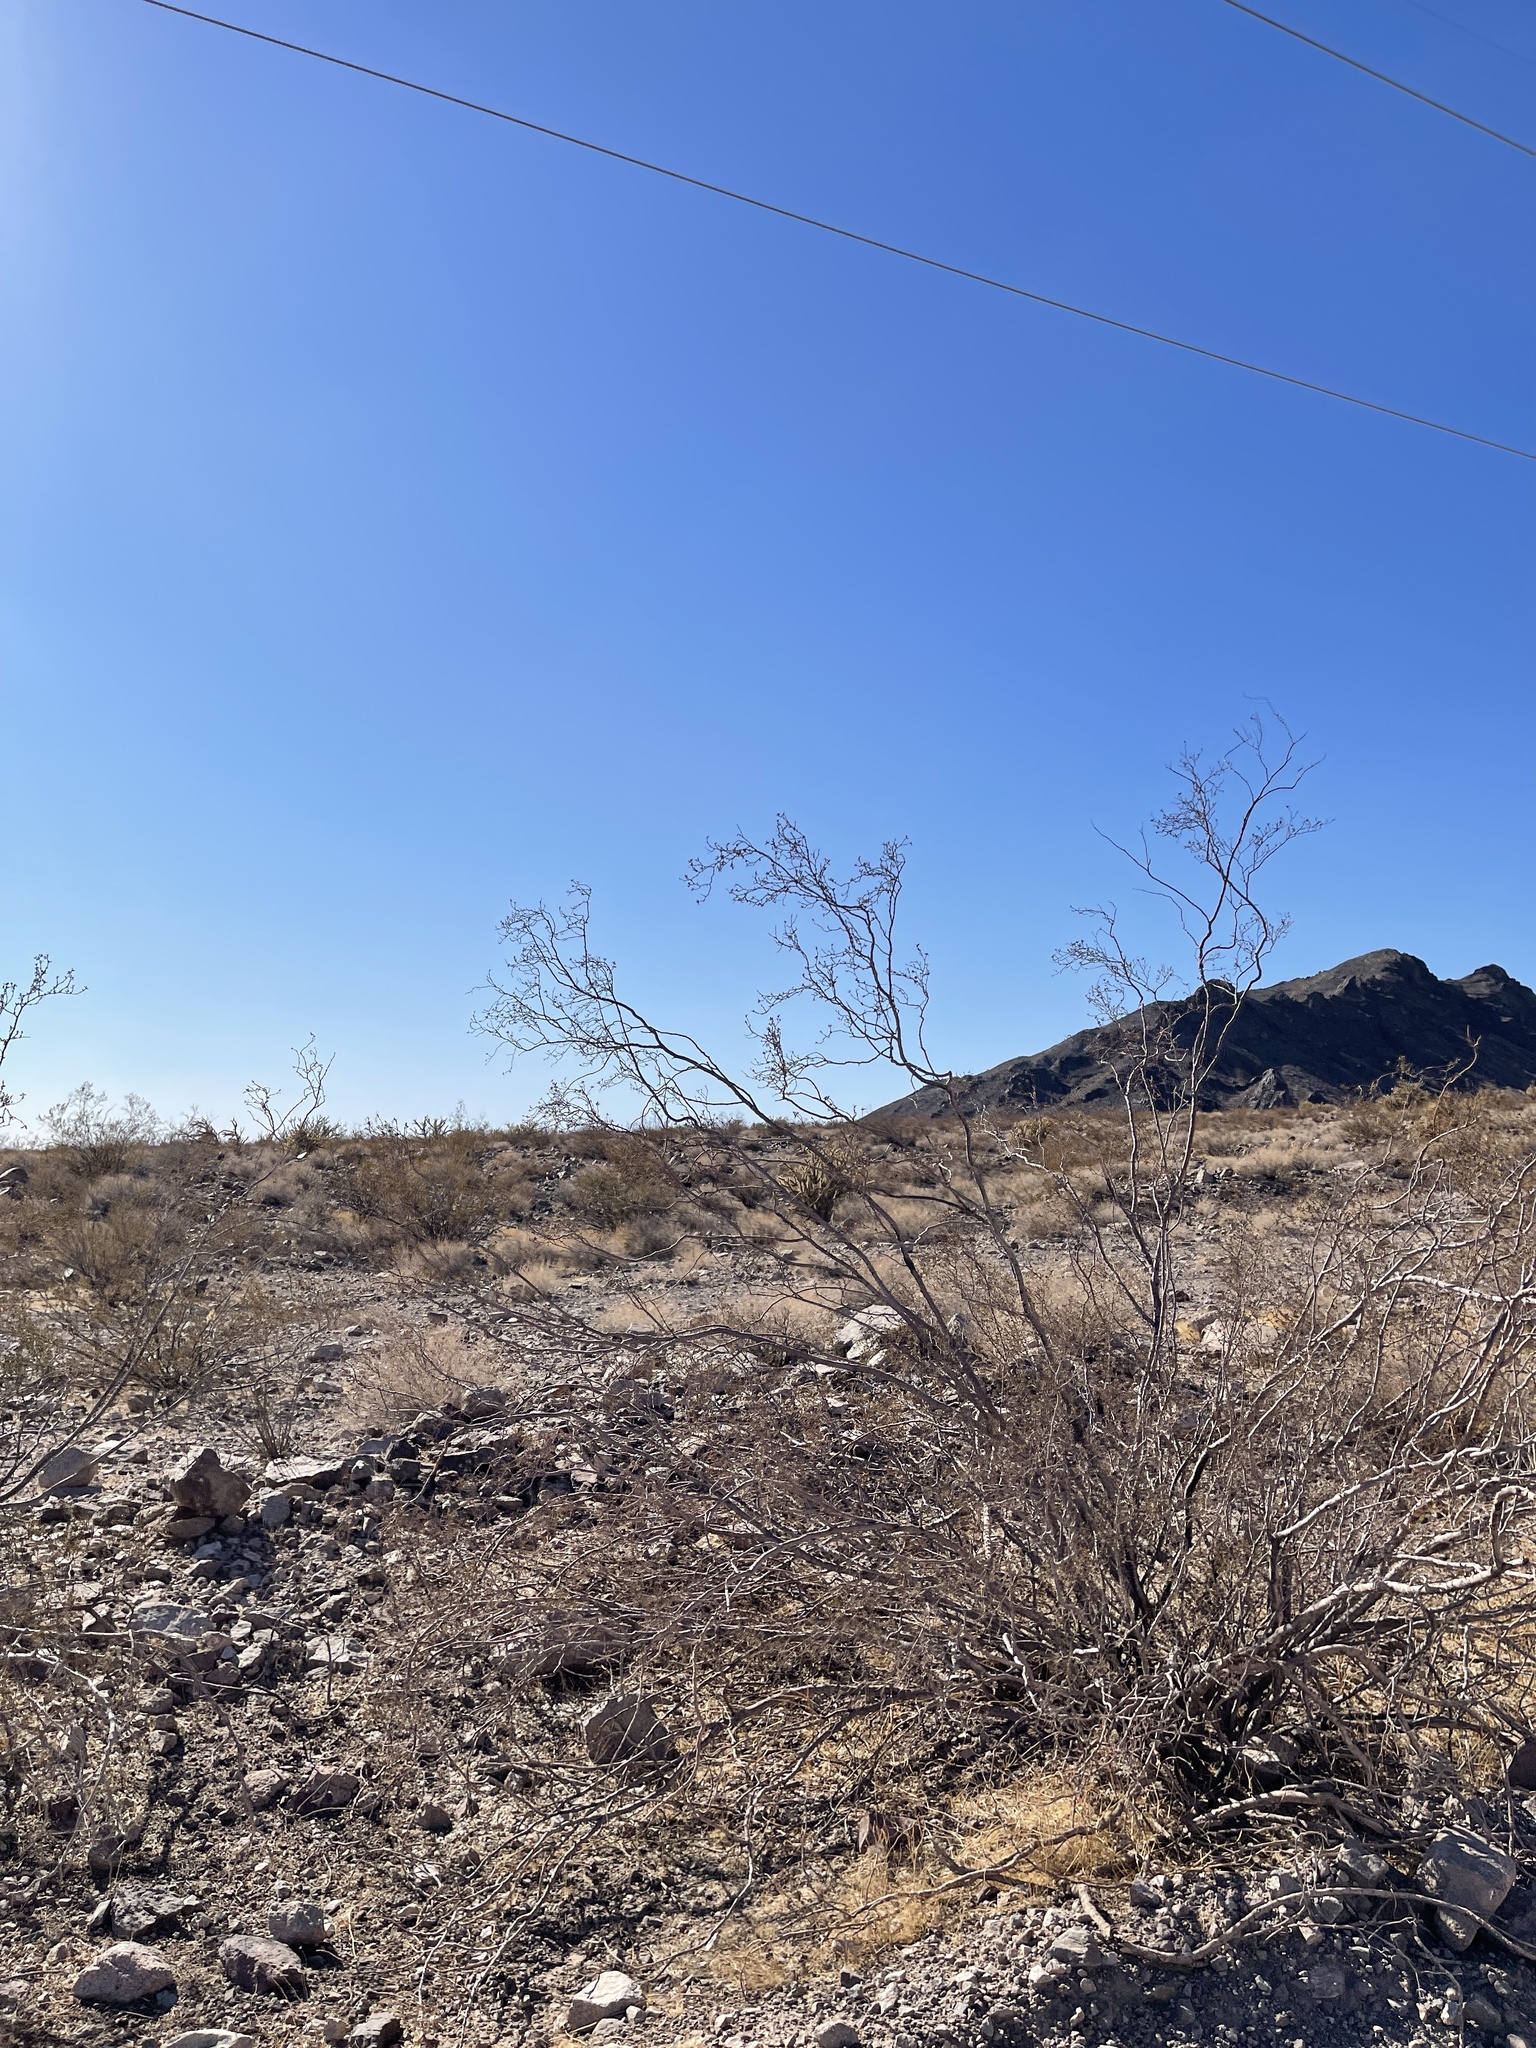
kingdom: Plantae
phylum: Tracheophyta
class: Magnoliopsida
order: Zygophyllales
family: Zygophyllaceae
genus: Larrea
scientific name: Larrea tridentata
